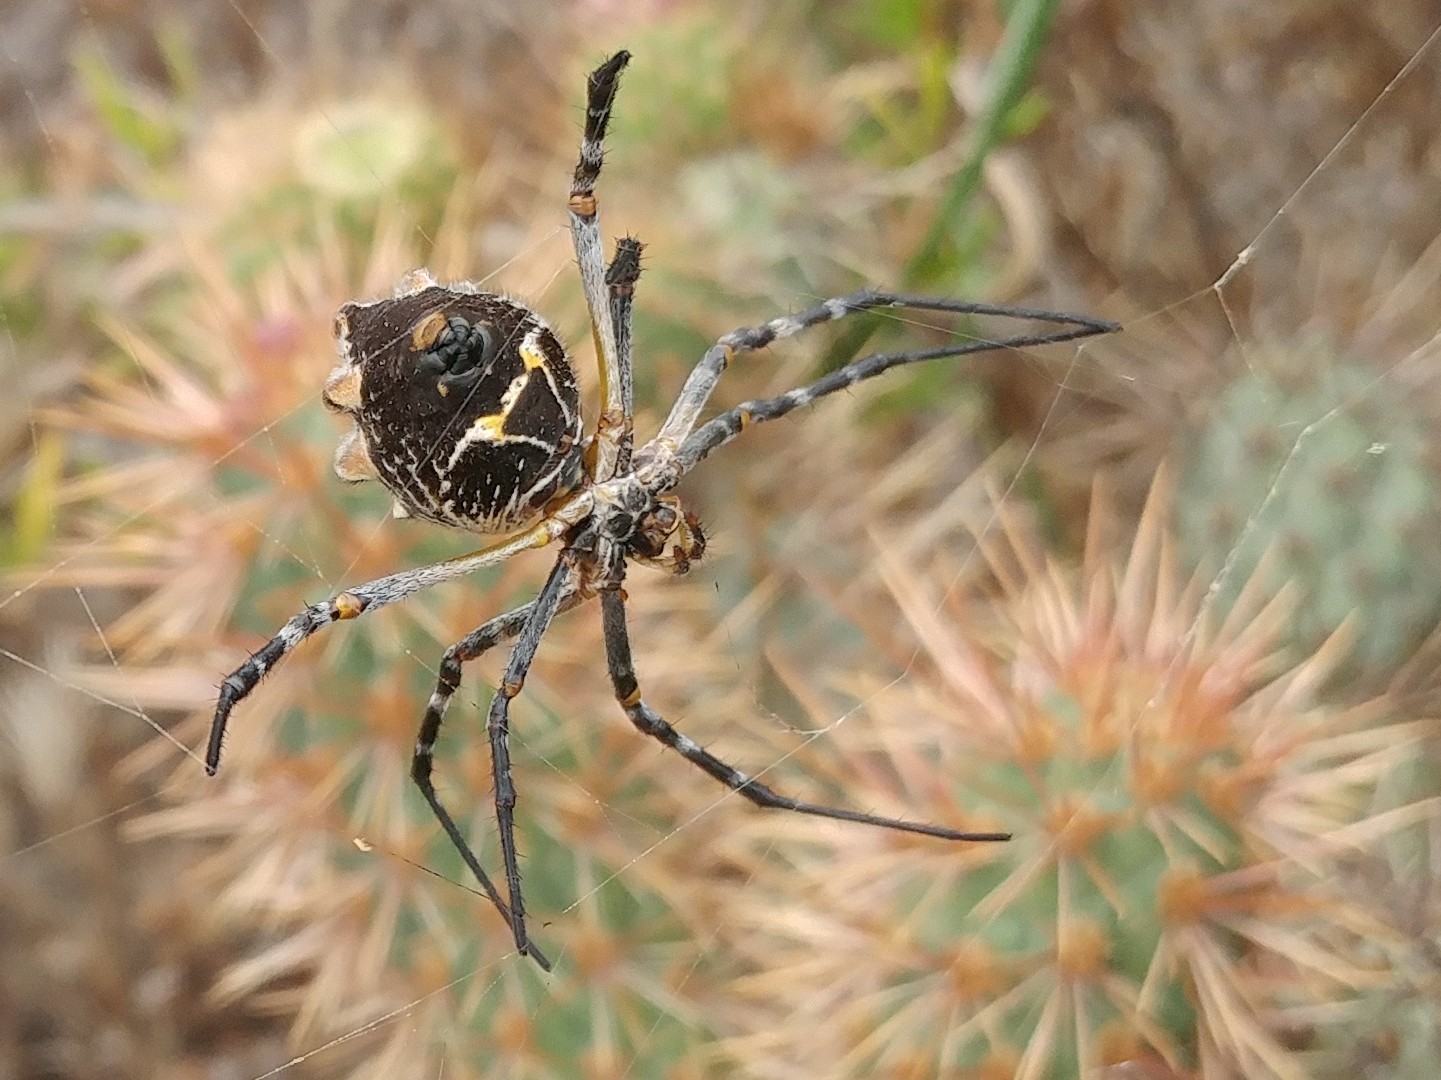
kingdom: Animalia
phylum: Arthropoda
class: Arachnida
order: Araneae
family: Araneidae
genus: Argiope
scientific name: Argiope argentata
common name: Orb weavers
